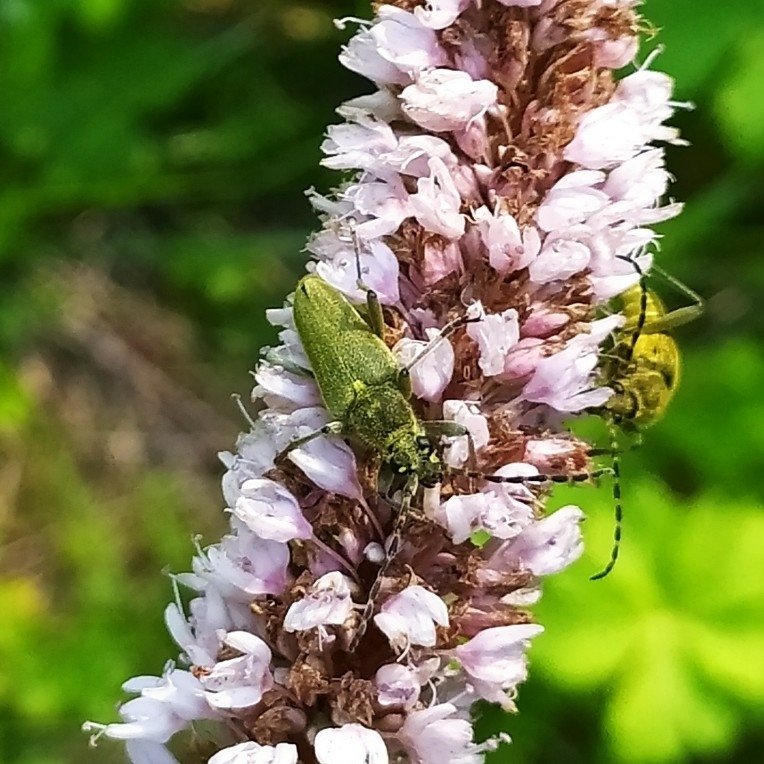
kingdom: Animalia
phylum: Arthropoda
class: Insecta
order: Coleoptera
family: Cerambycidae
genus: Lepturobosca
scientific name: Lepturobosca virens
